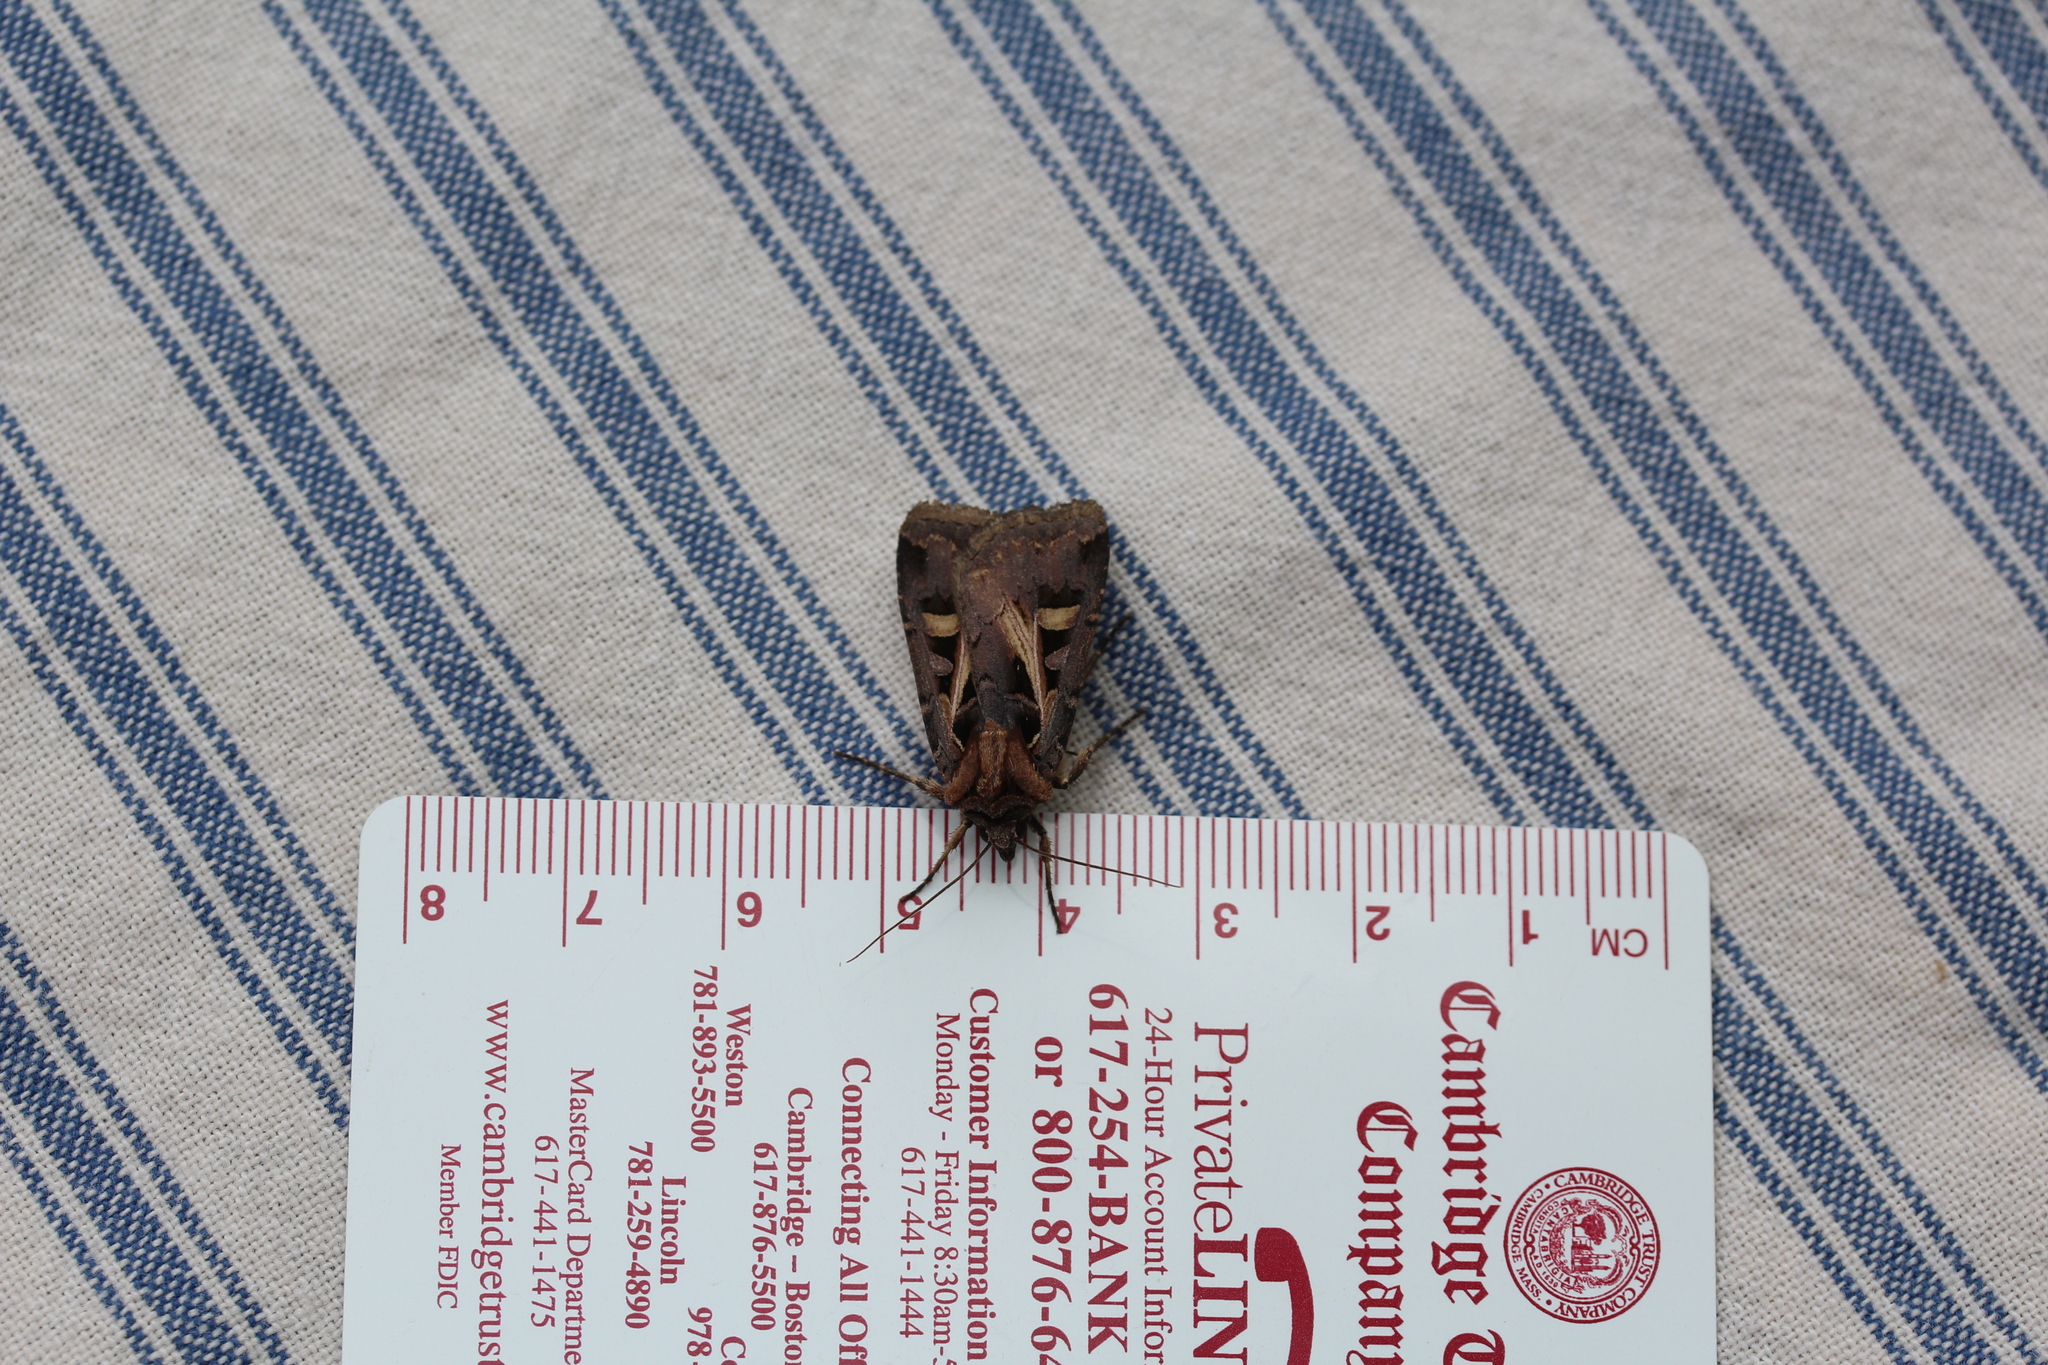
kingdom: Animalia
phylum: Arthropoda
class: Insecta
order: Lepidoptera
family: Noctuidae
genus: Feltia
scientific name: Feltia herilis
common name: Master's dart
